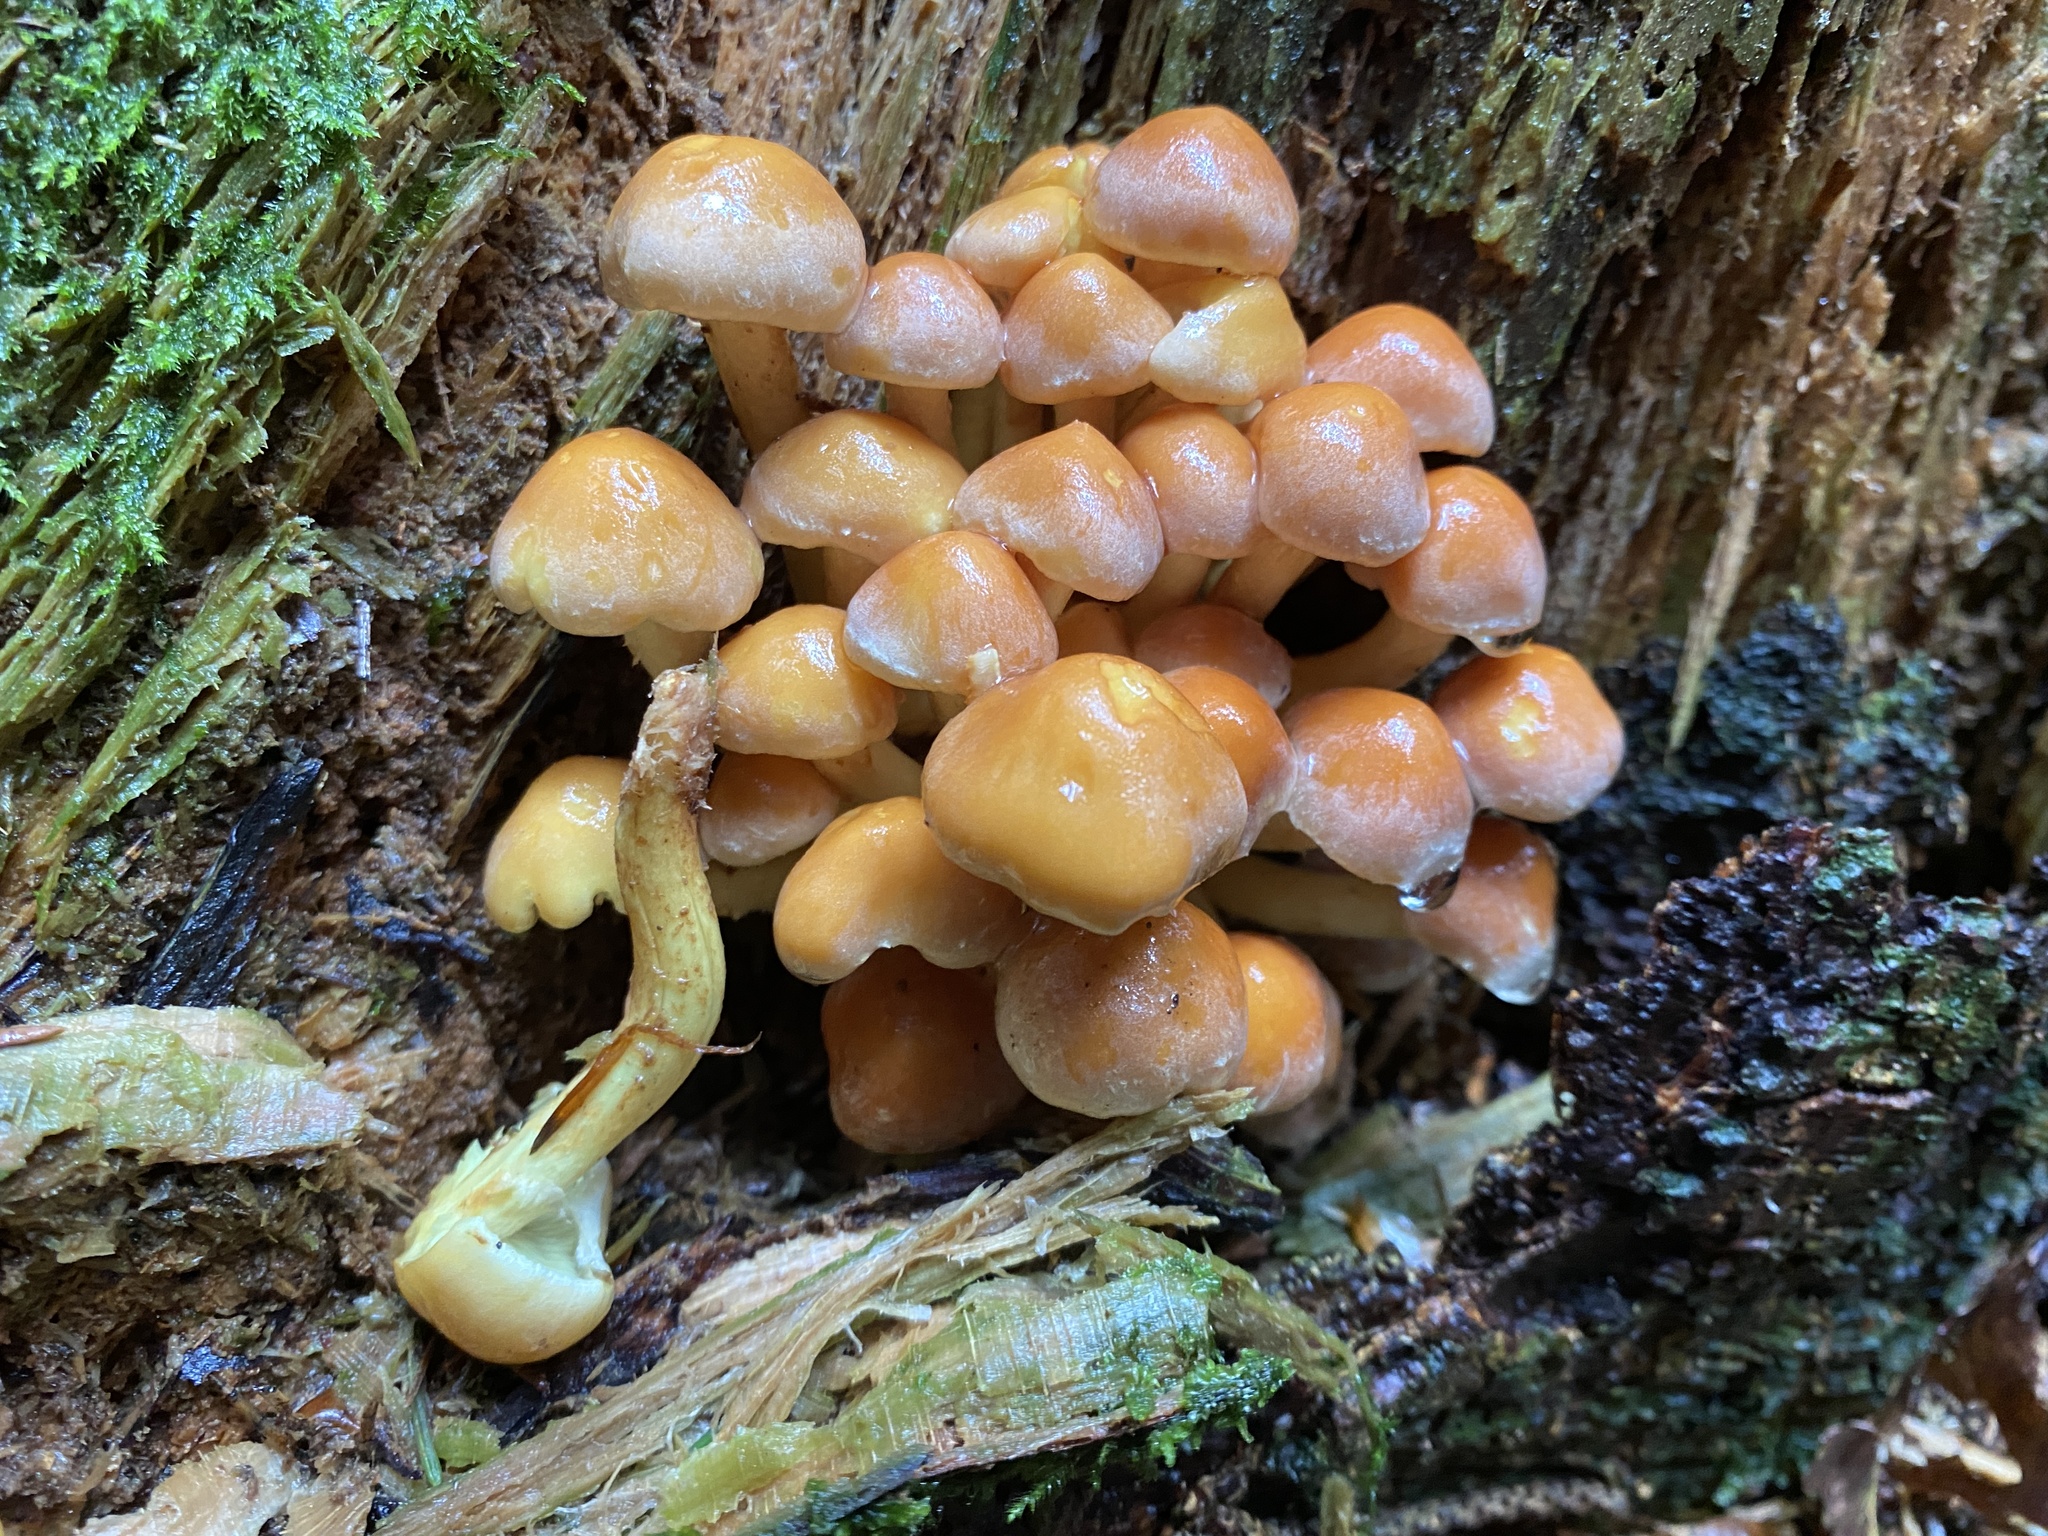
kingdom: Fungi
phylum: Basidiomycota
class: Agaricomycetes
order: Agaricales
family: Strophariaceae
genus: Hypholoma
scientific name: Hypholoma fasciculare
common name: Sulphur tuft
